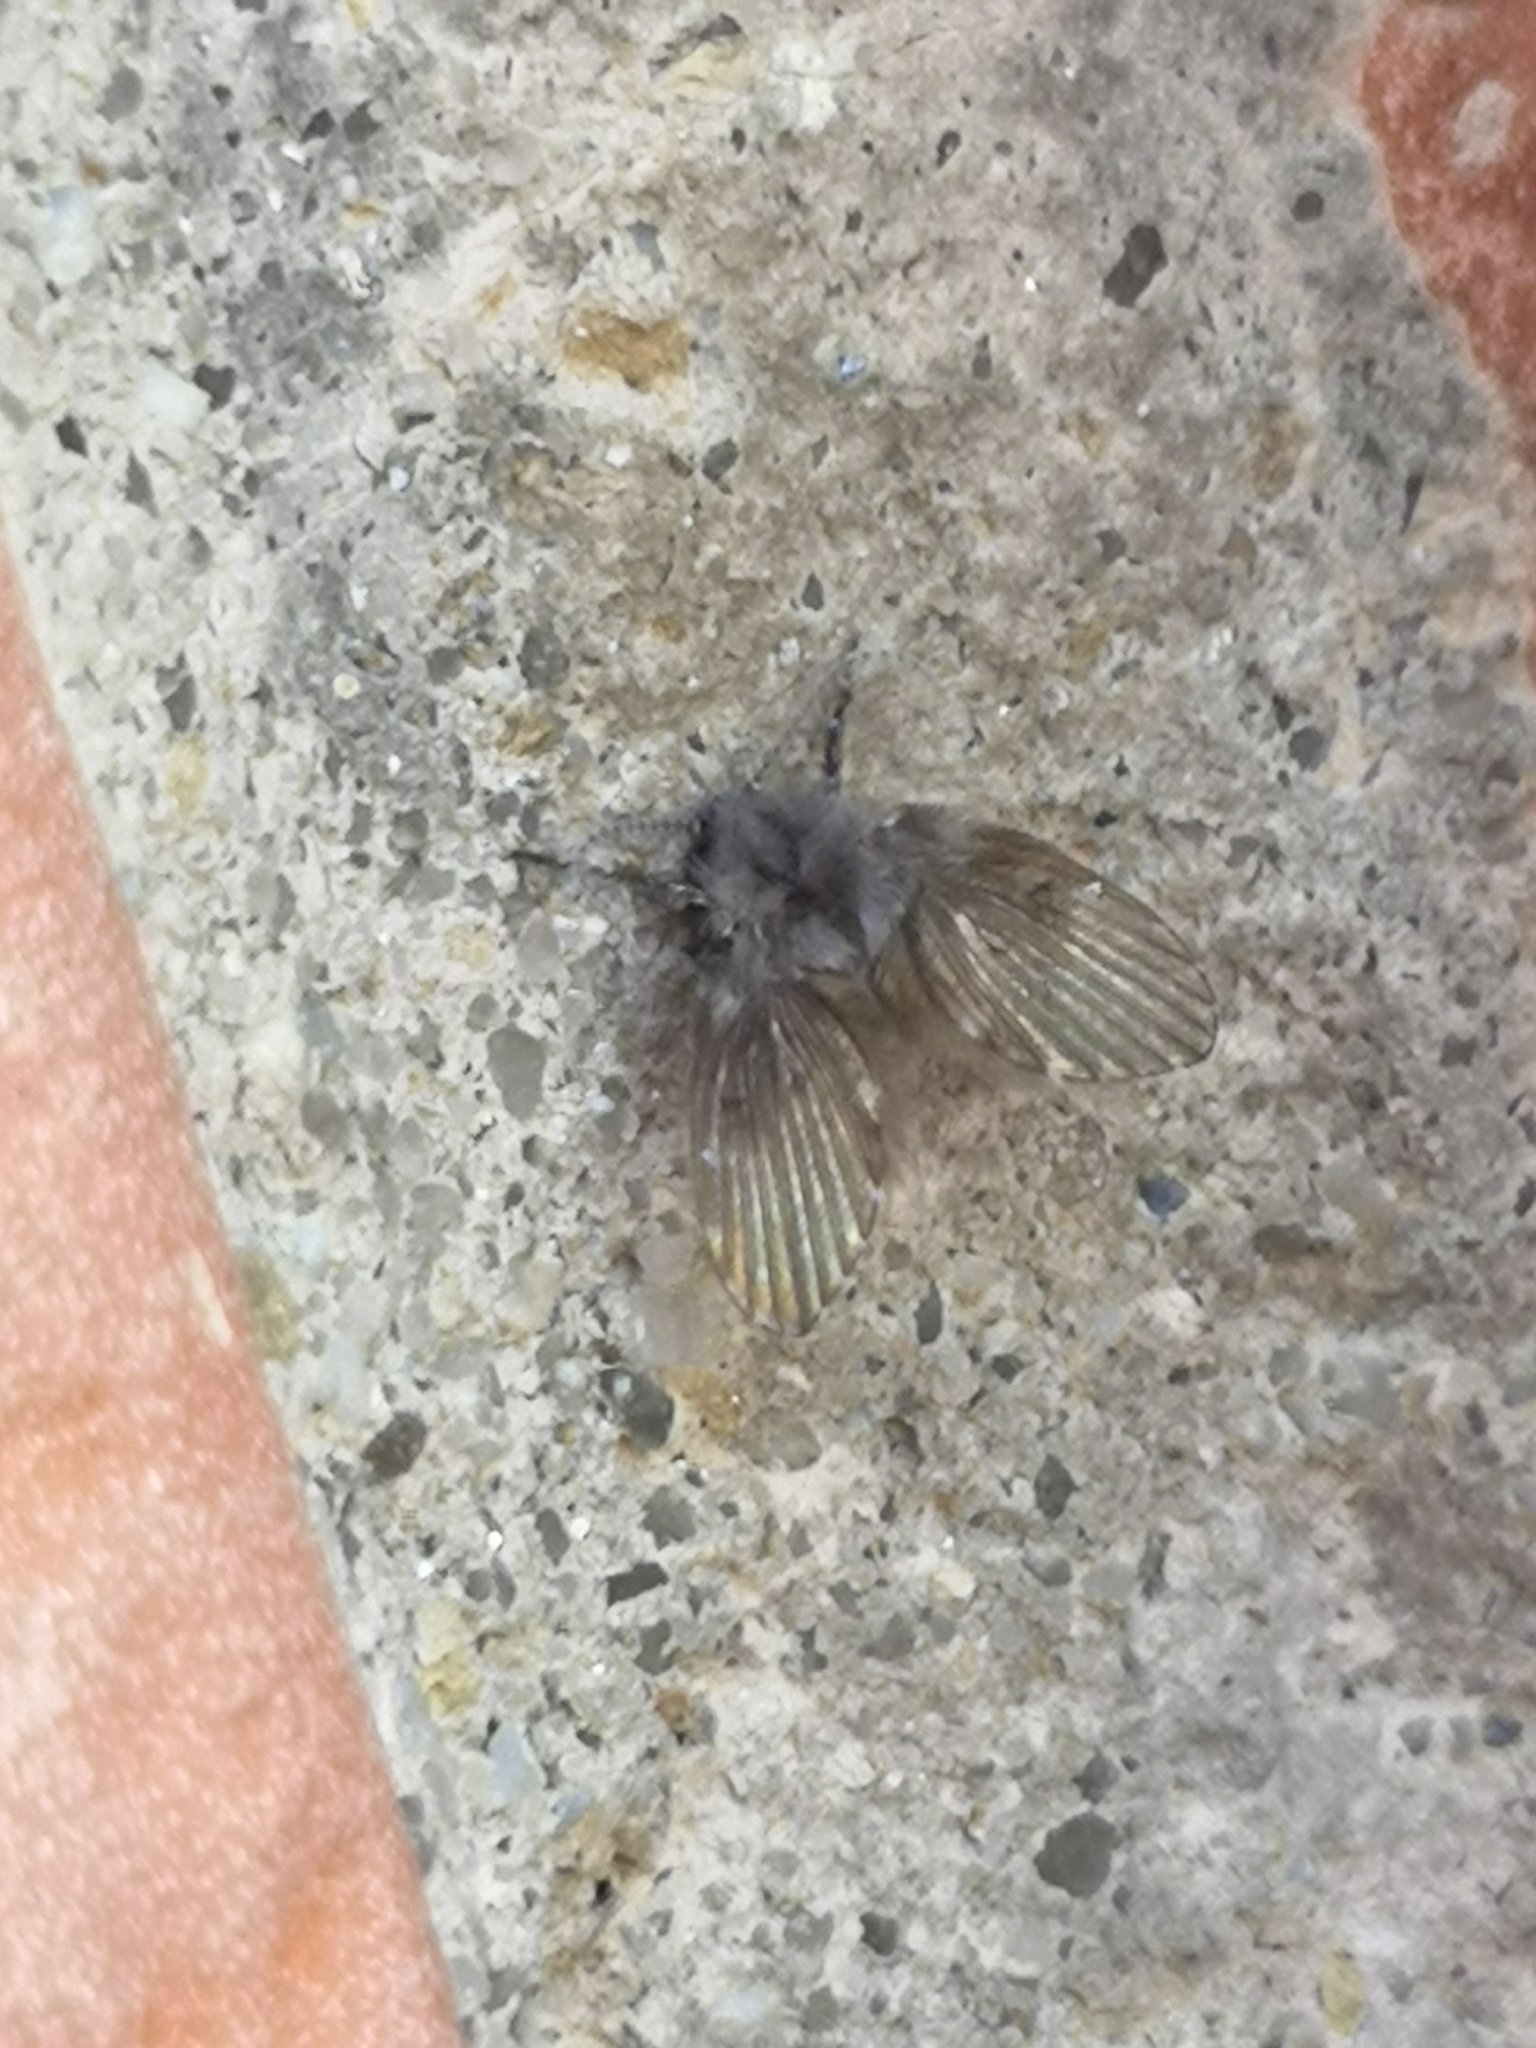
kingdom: Animalia
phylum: Arthropoda
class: Insecta
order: Diptera
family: Psychodidae
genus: Clogmia
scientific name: Clogmia albipunctatus
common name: White-spotted moth fly
